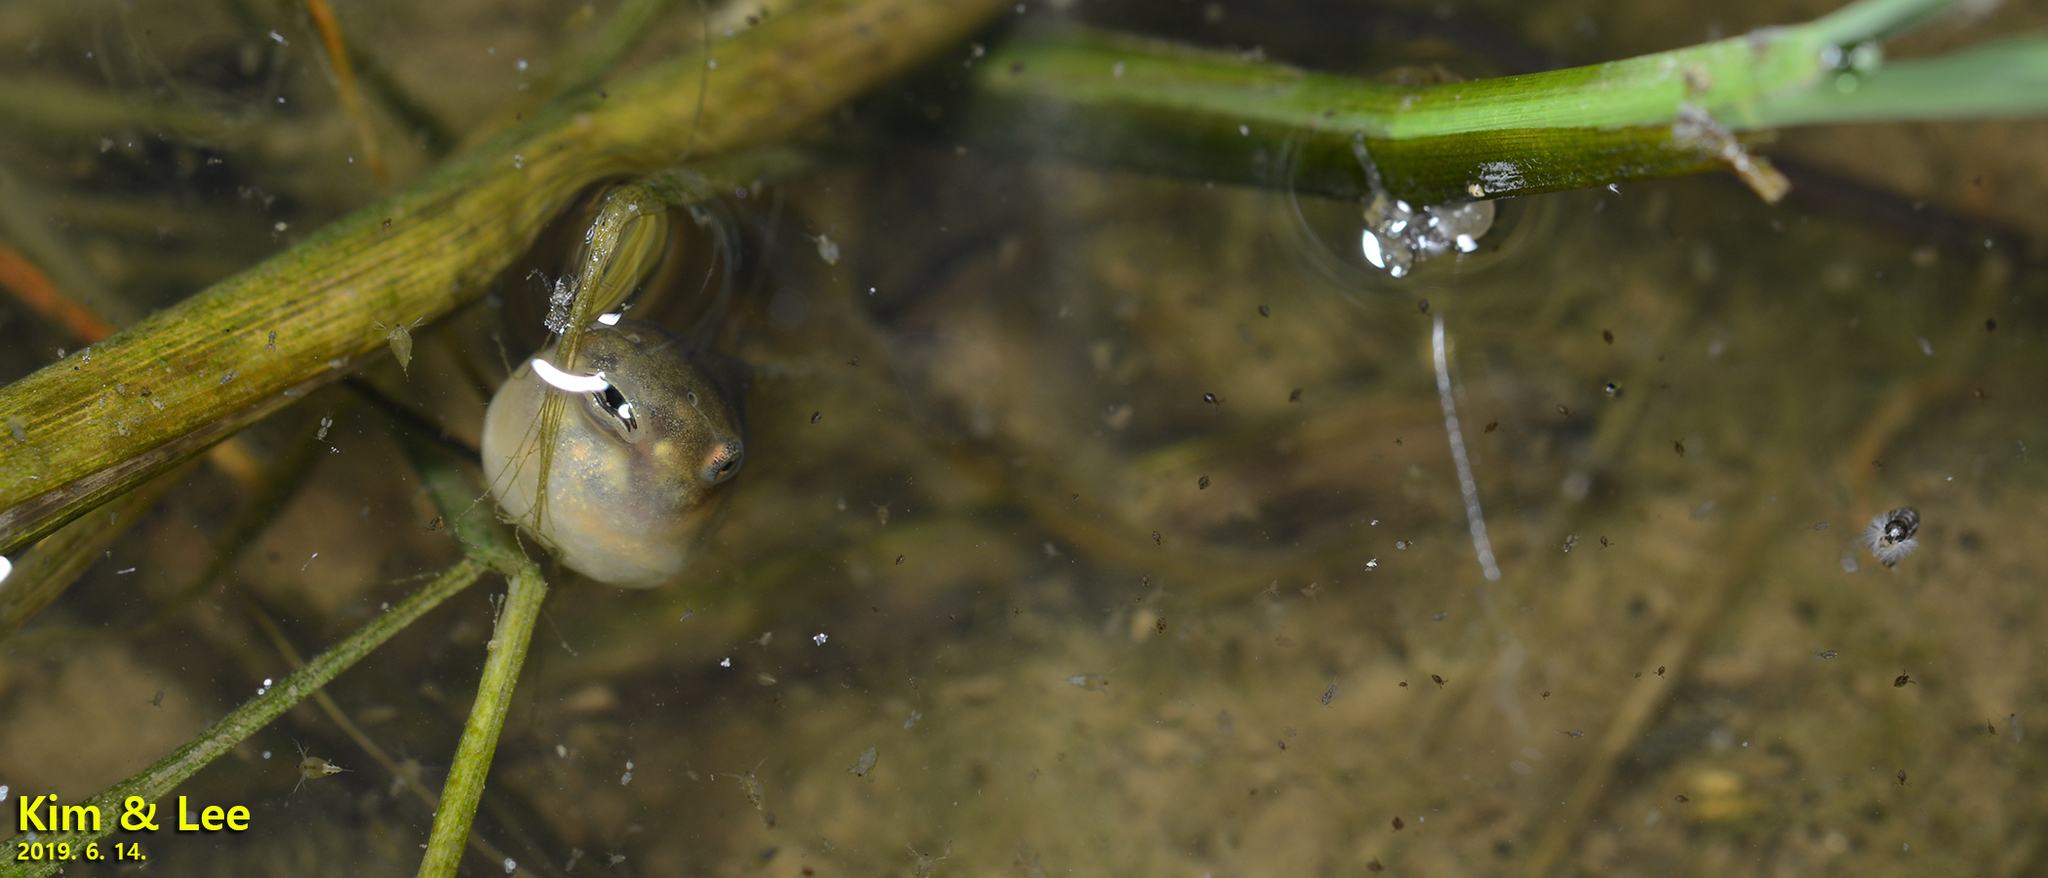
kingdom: Animalia
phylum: Chordata
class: Amphibia
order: Anura
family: Hylidae
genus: Dryophytes
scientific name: Dryophytes japonicus
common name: Japanese treefrog
